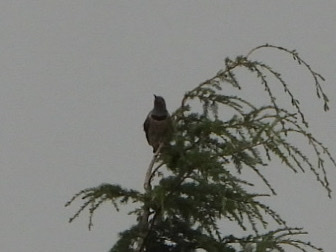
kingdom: Animalia
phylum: Chordata
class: Aves
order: Piciformes
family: Picidae
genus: Colaptes
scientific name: Colaptes auratus
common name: Northern flicker
